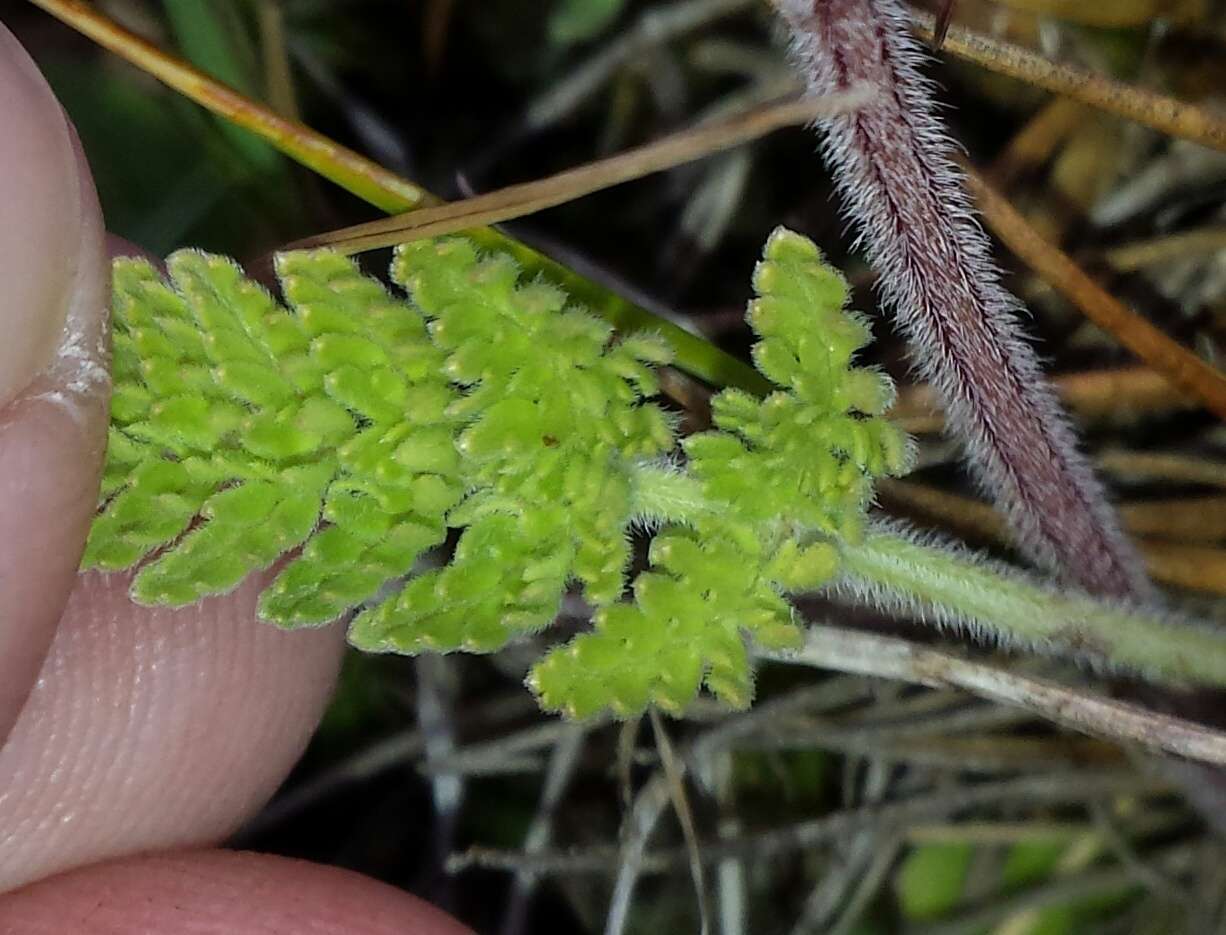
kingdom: Plantae
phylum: Tracheophyta
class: Magnoliopsida
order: Apiales
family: Apiaceae
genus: Chaerophyllum
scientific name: Chaerophyllum eriopodum
